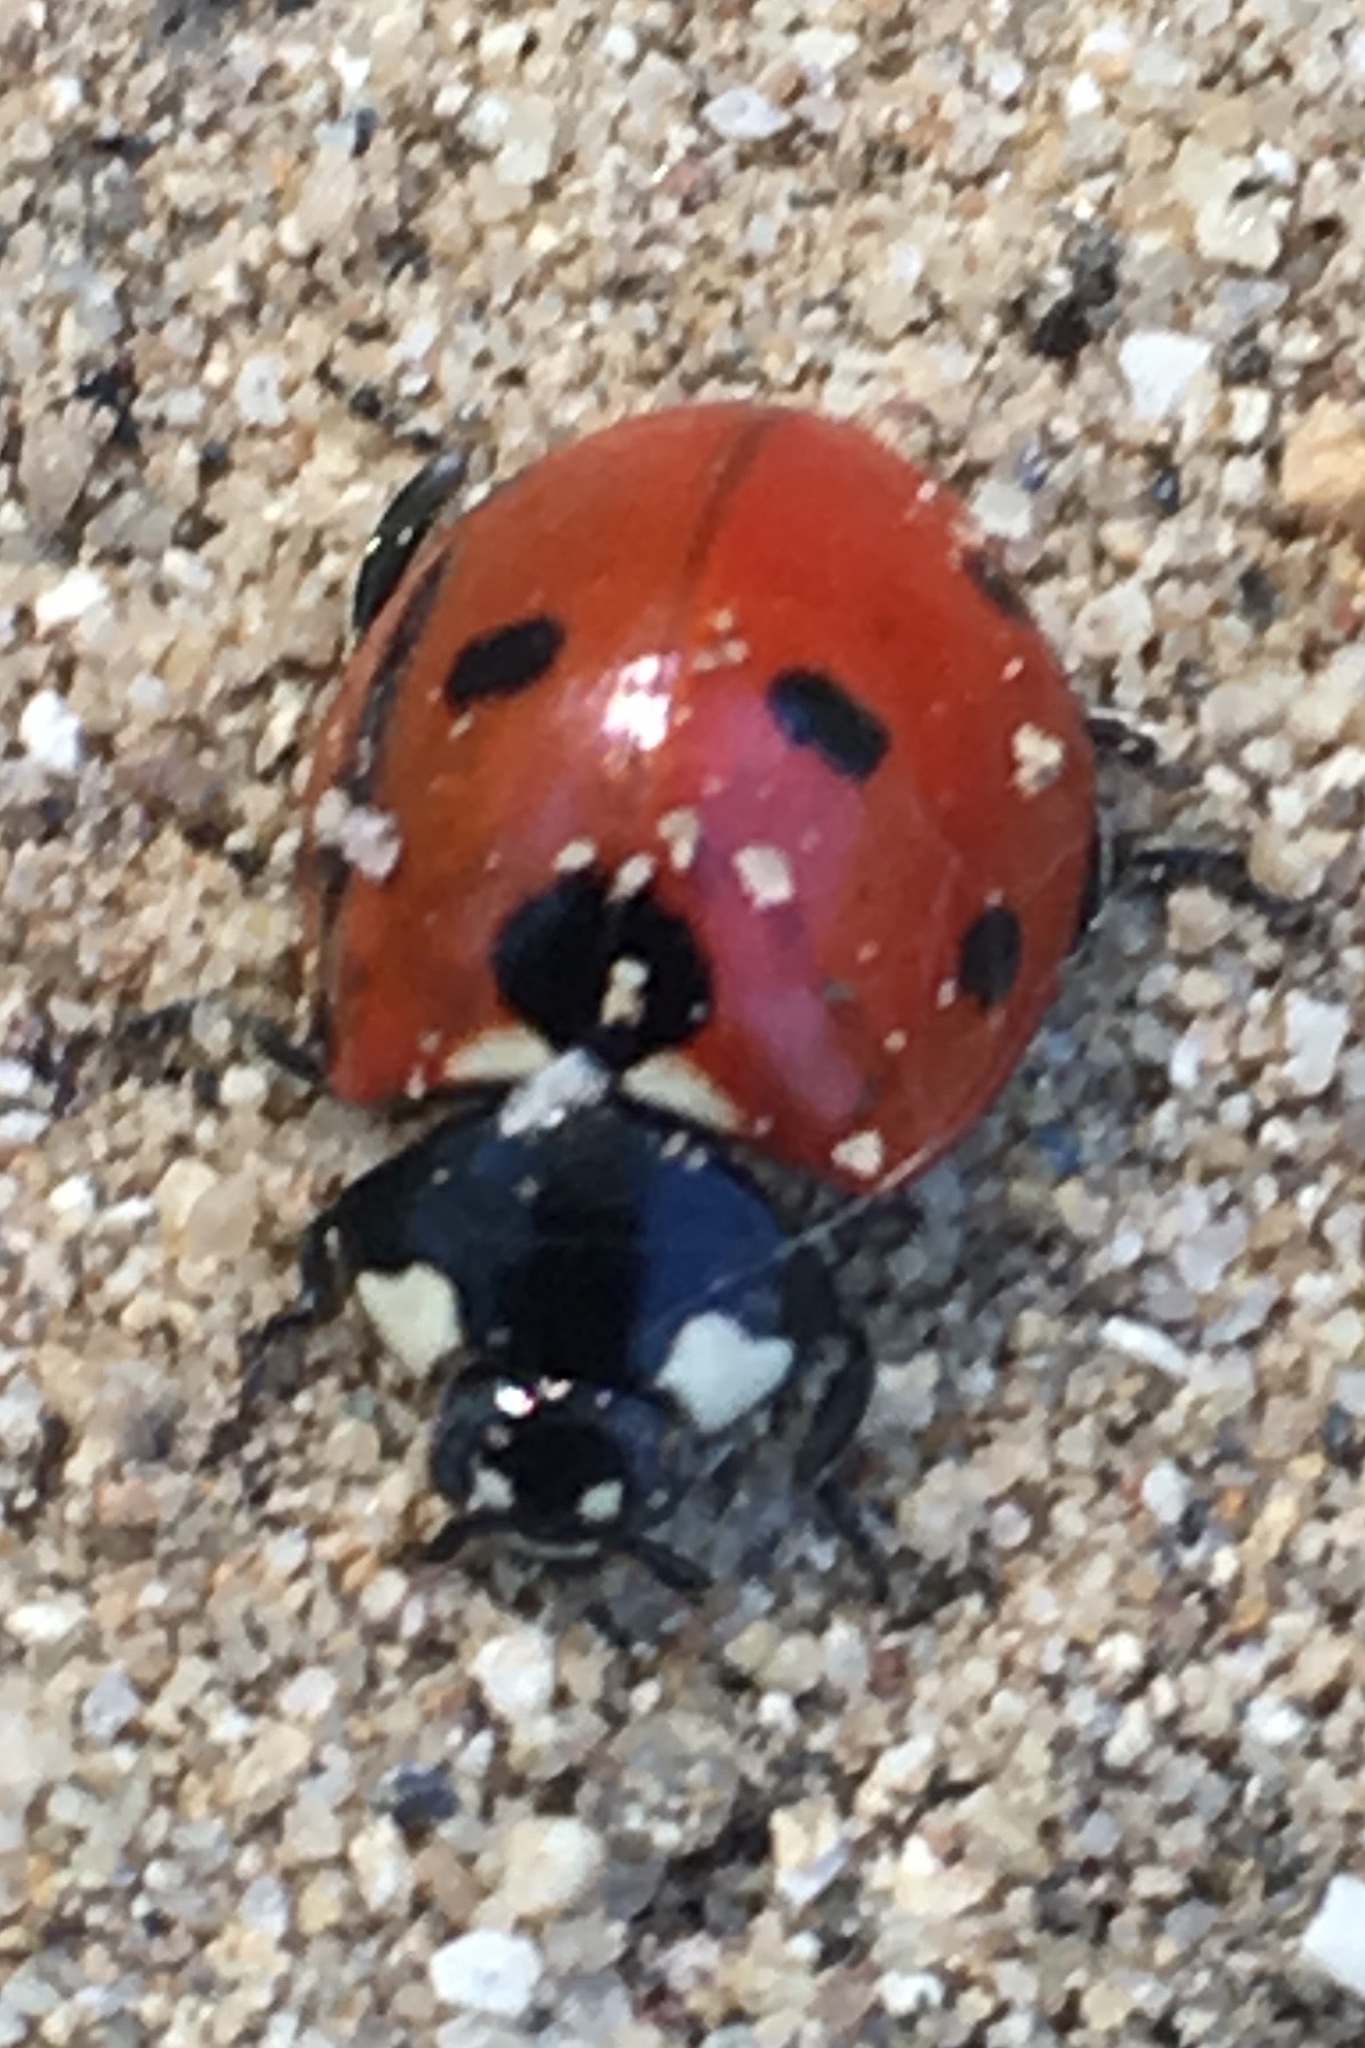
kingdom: Animalia
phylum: Arthropoda
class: Insecta
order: Coleoptera
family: Coccinellidae
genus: Coccinella
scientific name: Coccinella septempunctata
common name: Sevenspotted lady beetle
